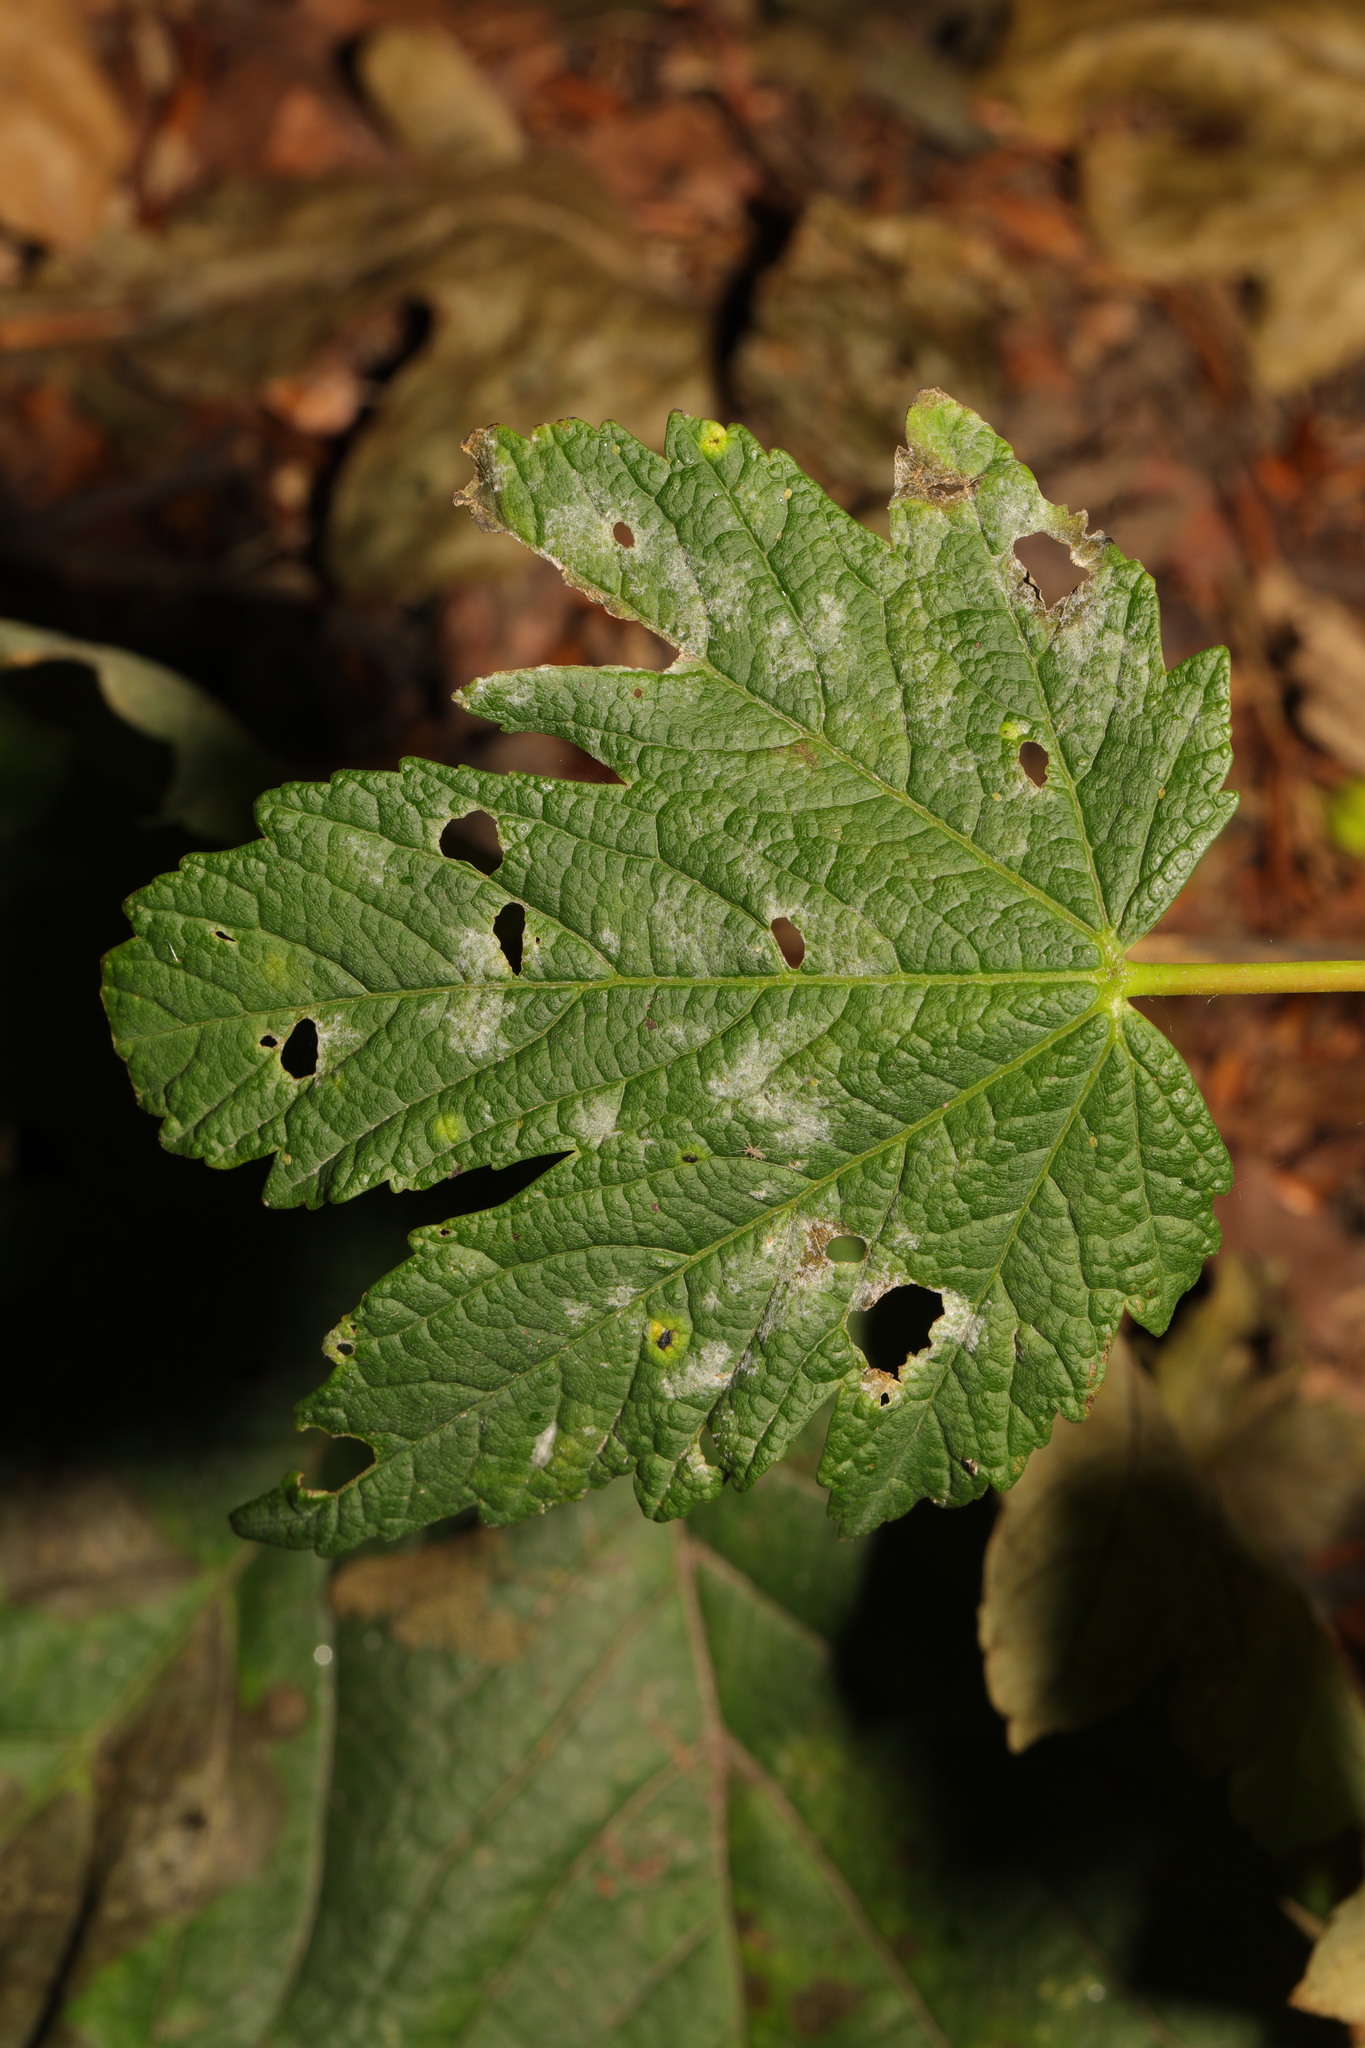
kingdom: Fungi
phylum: Ascomycota
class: Leotiomycetes
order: Rhytismatales
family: Rhytismataceae
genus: Rhytisma
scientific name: Rhytisma acerinum
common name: European tar spot
